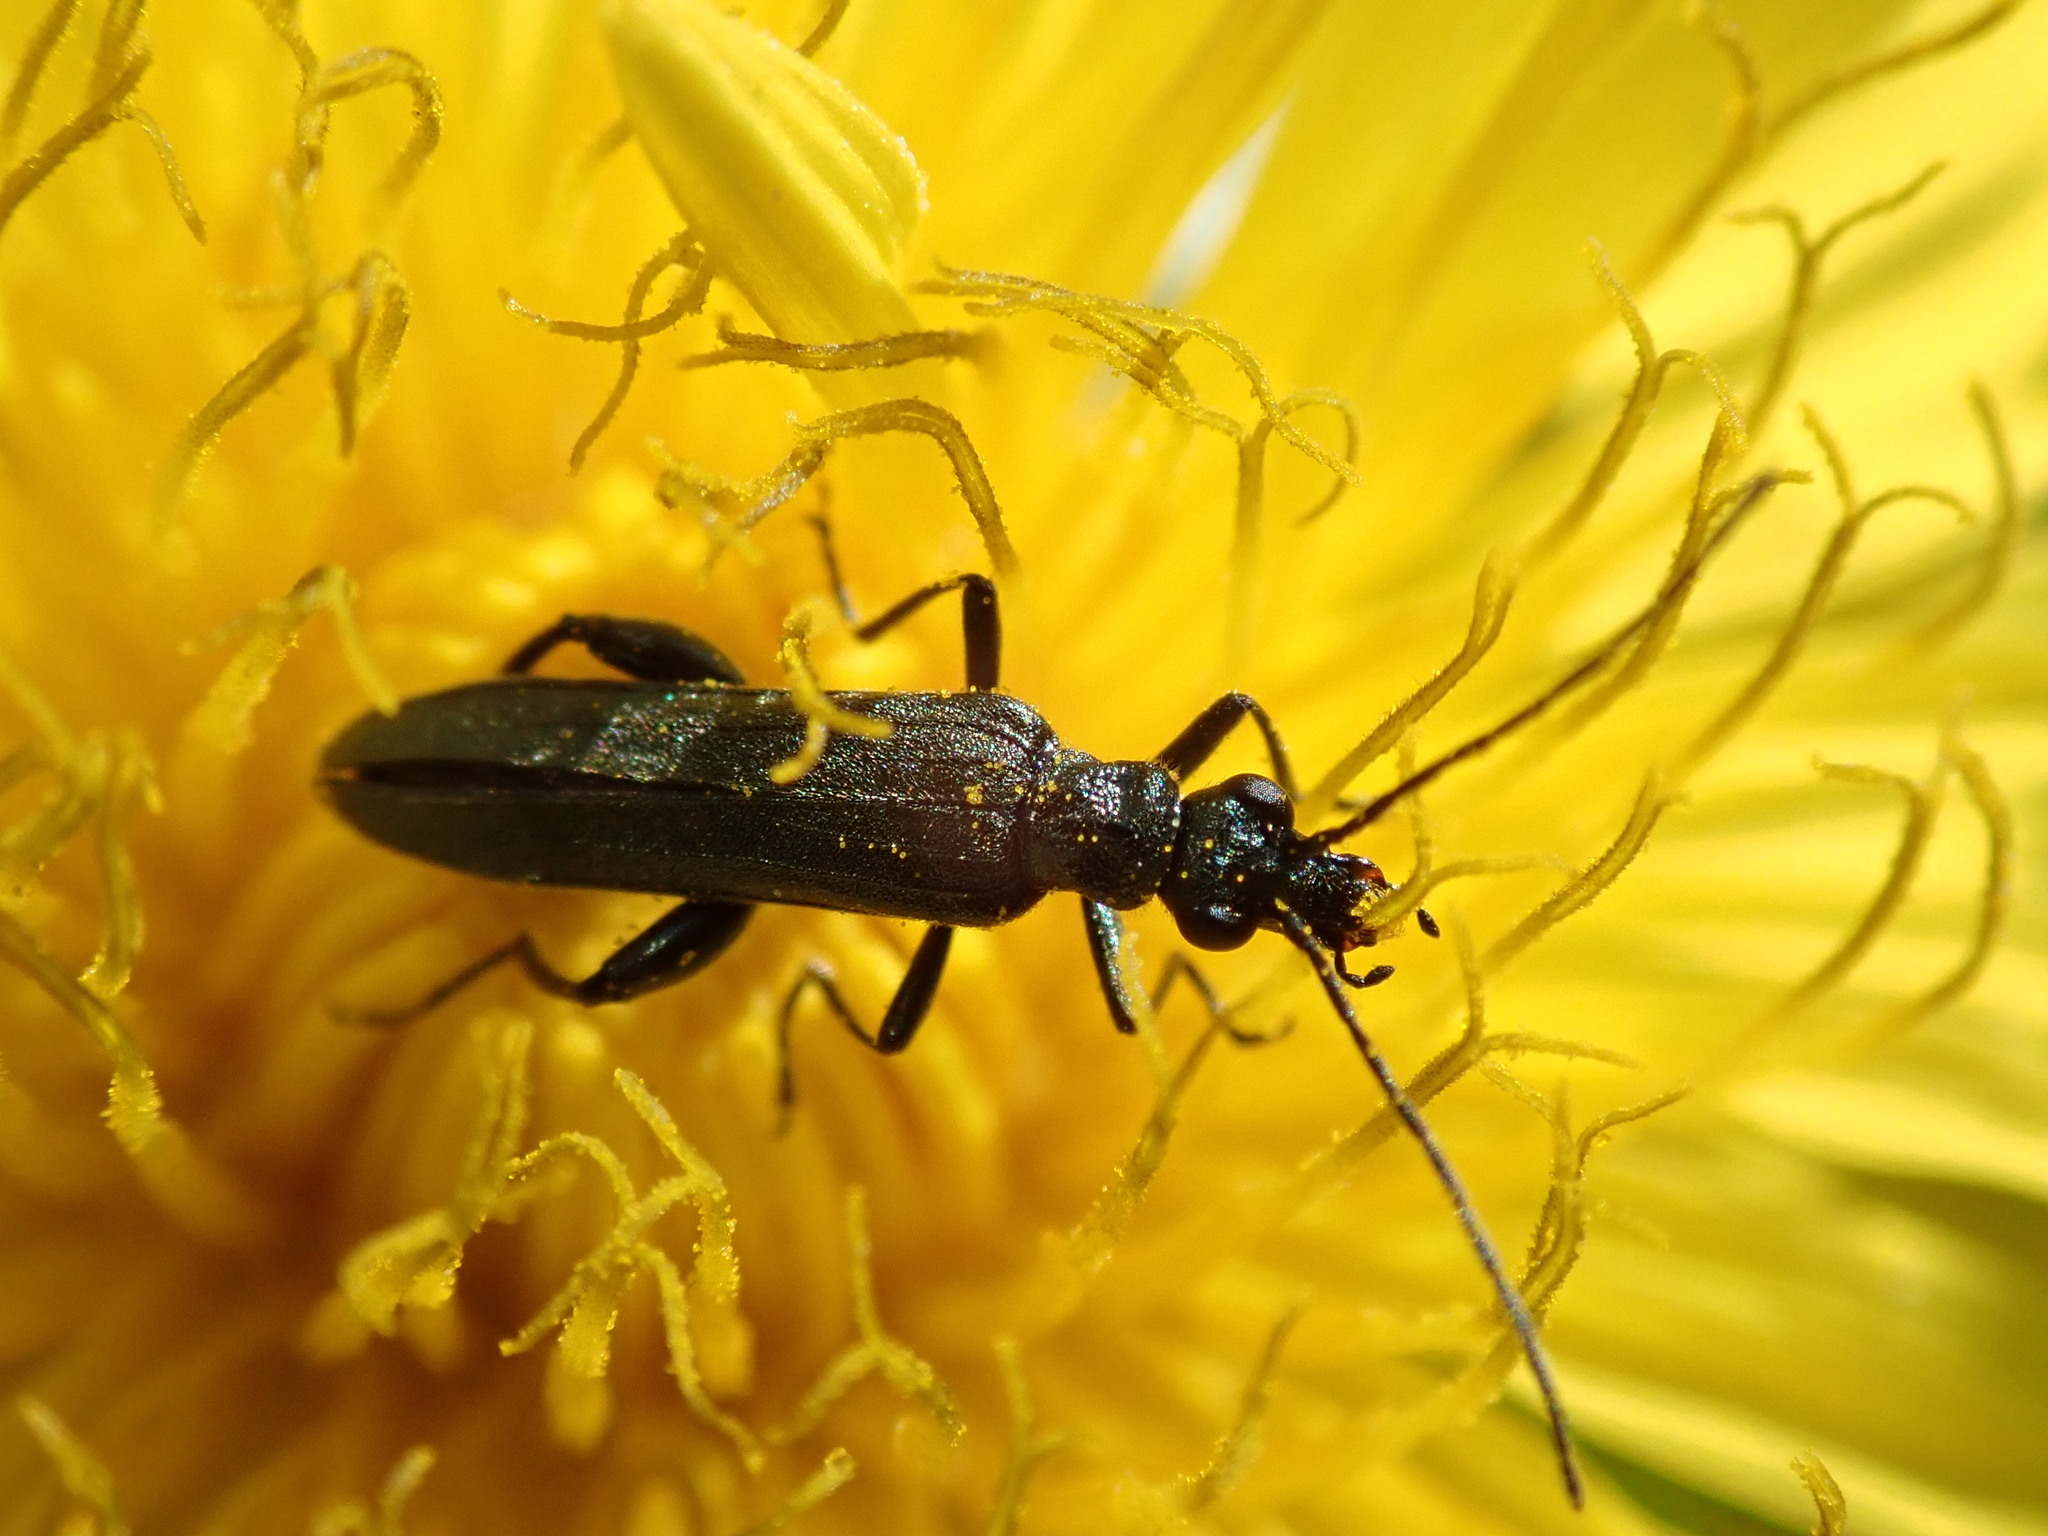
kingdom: Animalia
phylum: Arthropoda
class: Insecta
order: Coleoptera
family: Oedemeridae
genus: Oedemera
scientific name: Oedemera virescens
